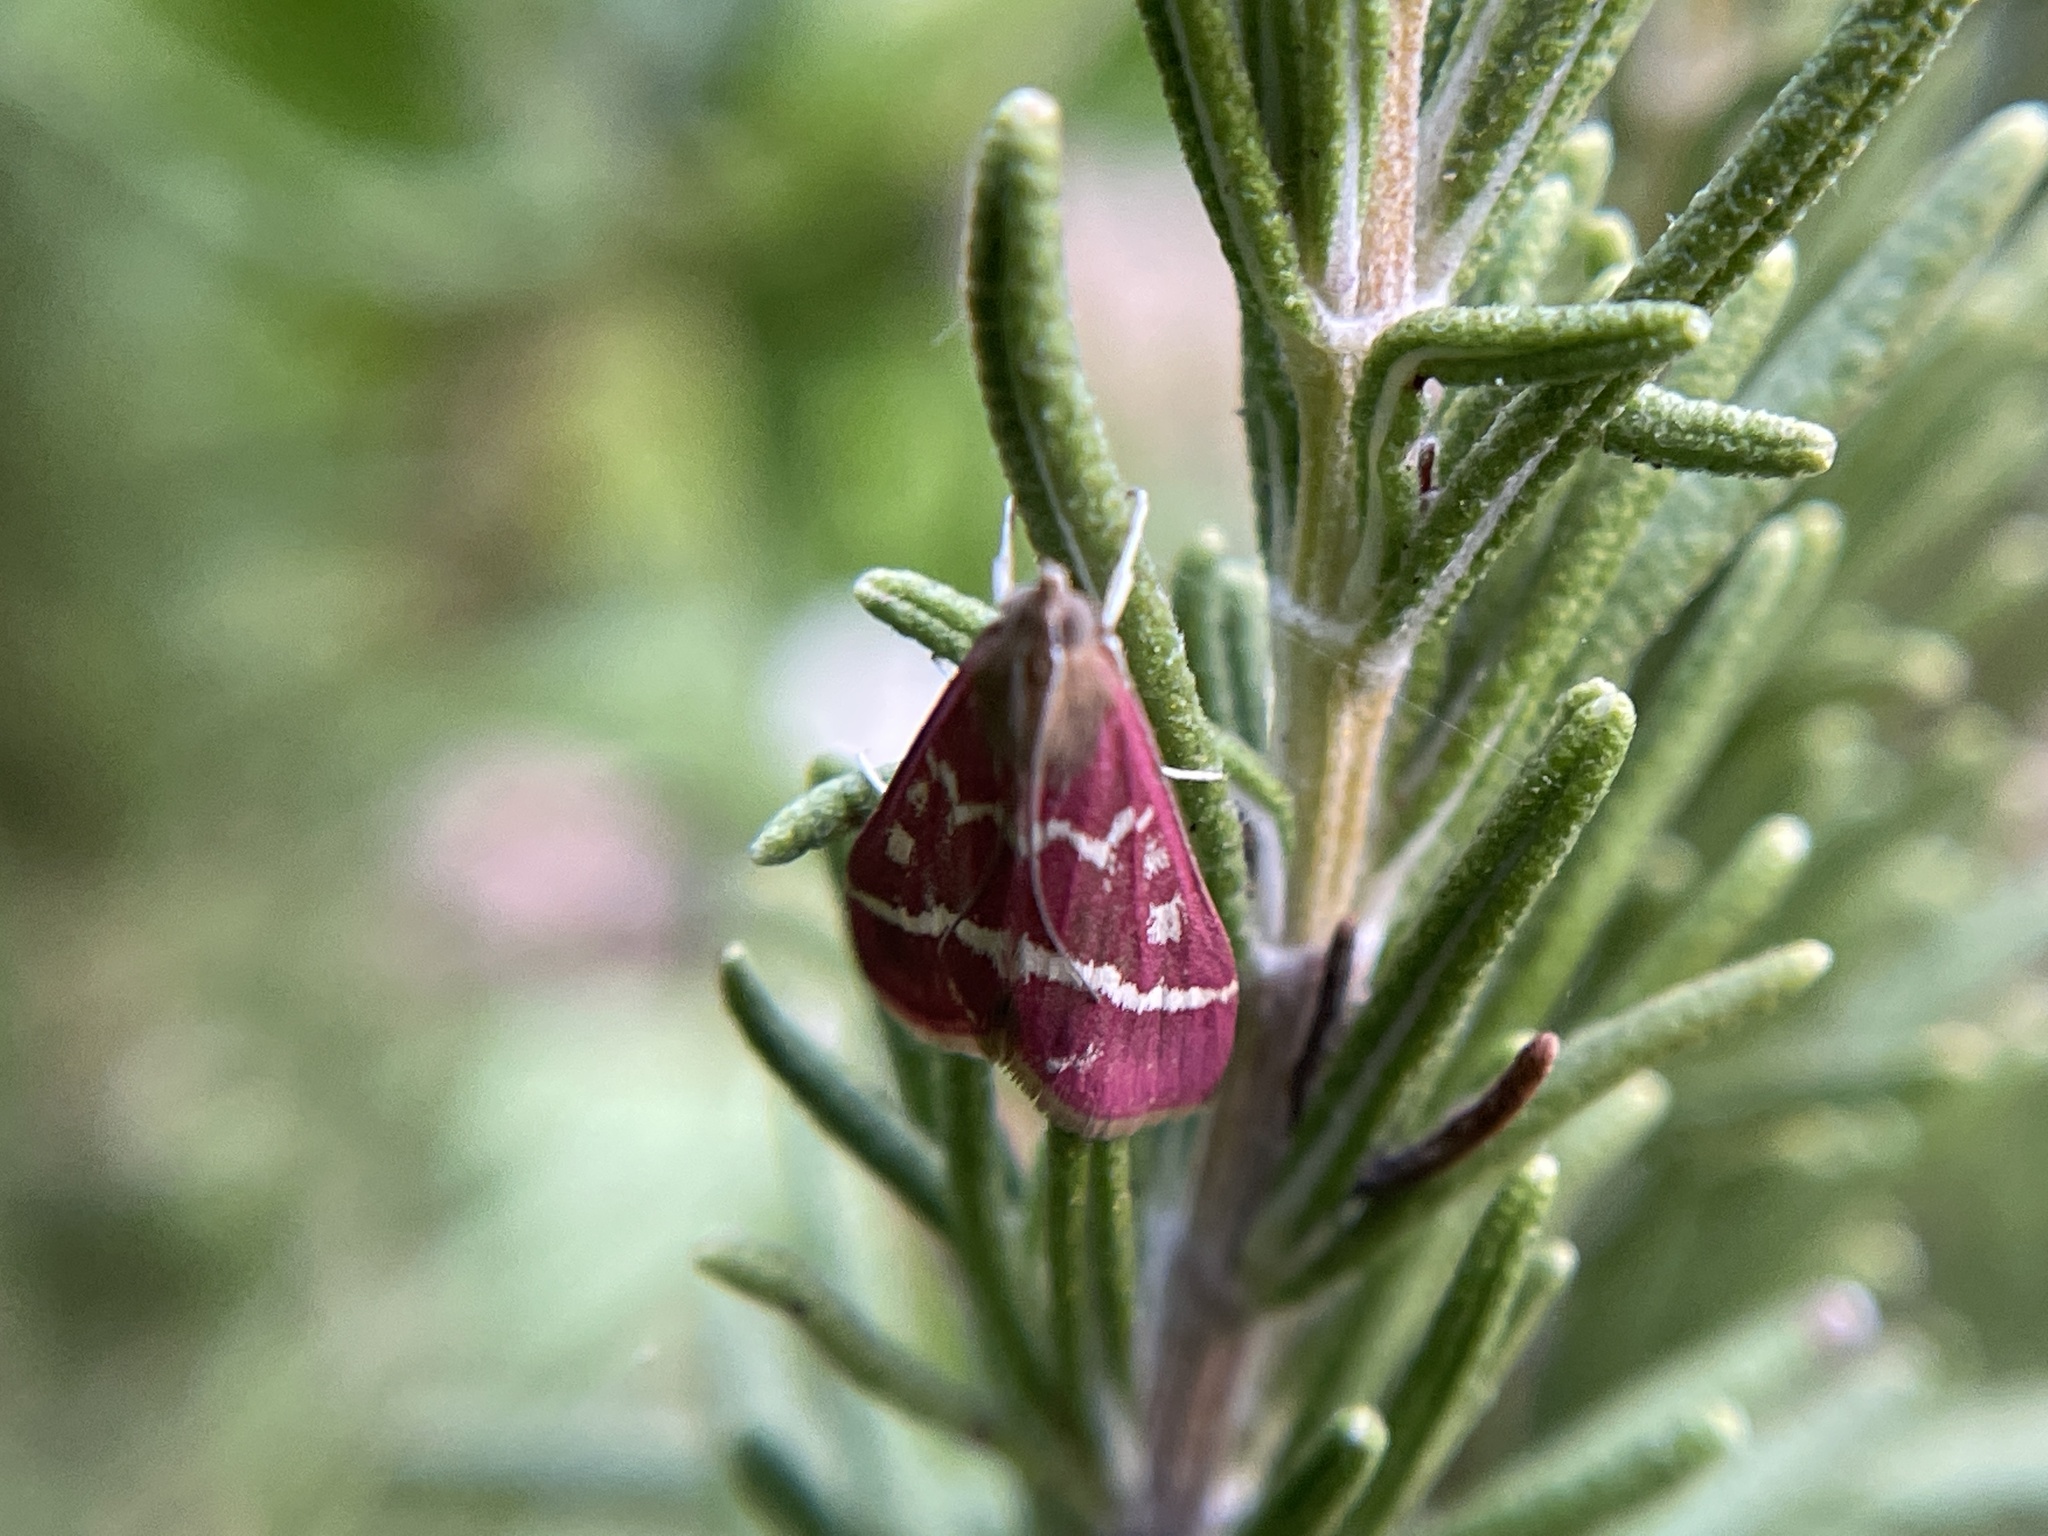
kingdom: Animalia
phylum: Arthropoda
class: Insecta
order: Lepidoptera
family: Crambidae
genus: Pyrausta
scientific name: Pyrausta volupialis
